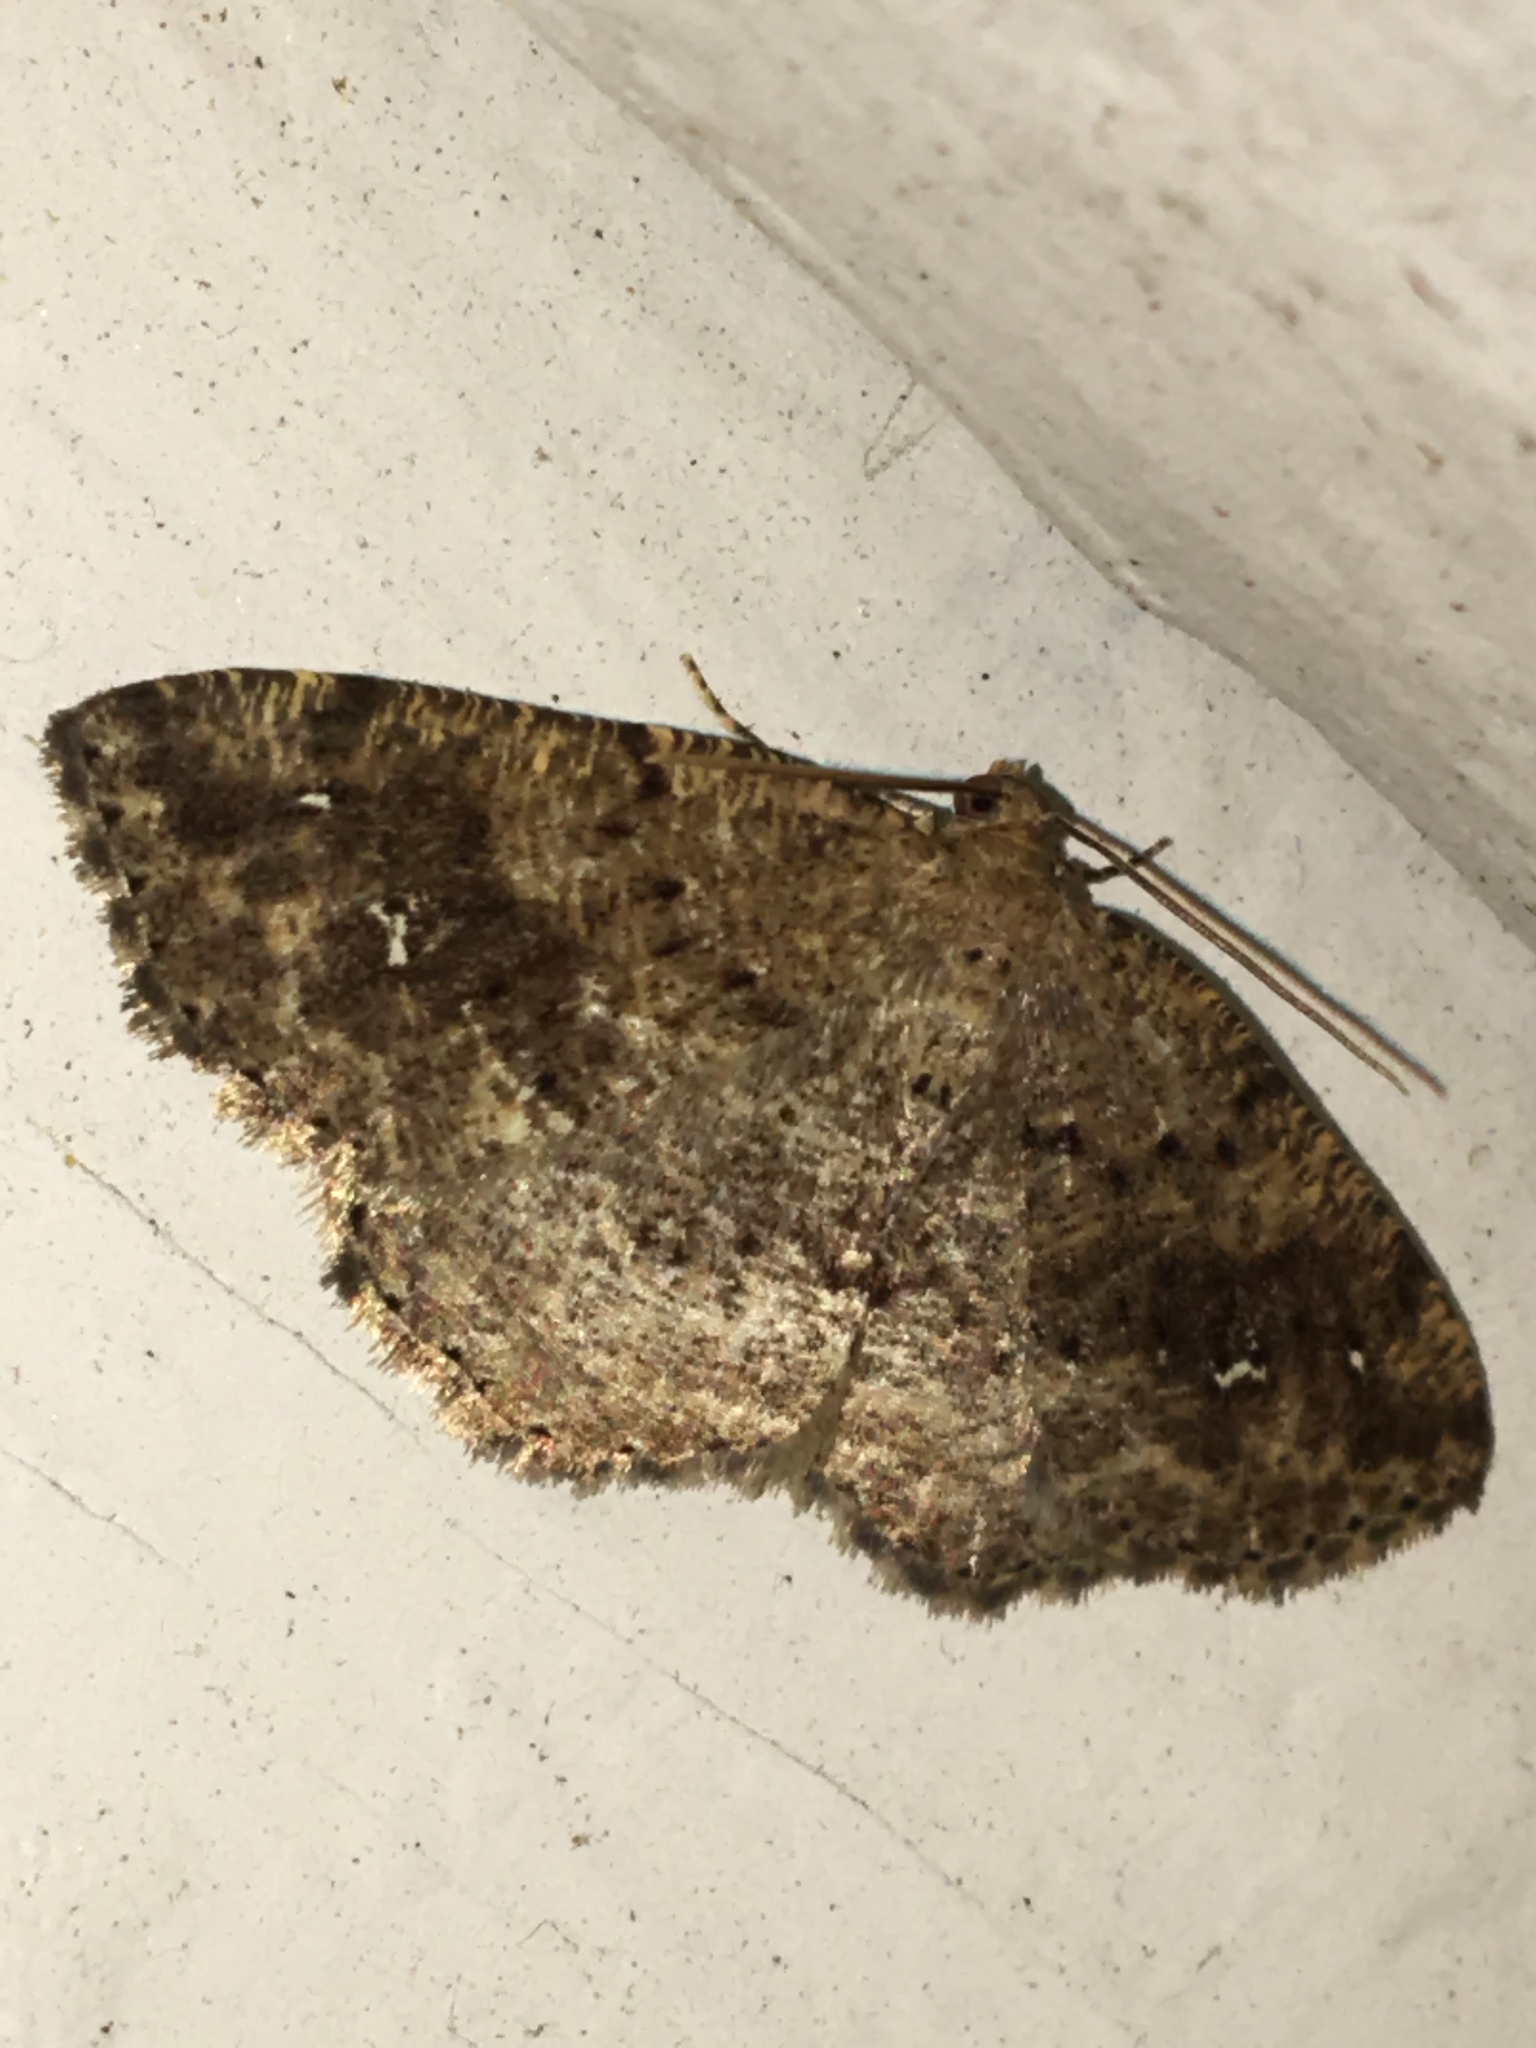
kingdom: Animalia
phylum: Arthropoda
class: Insecta
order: Lepidoptera
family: Geometridae
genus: Homochlodes
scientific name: Homochlodes fritillaria
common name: Pale homochlodes
